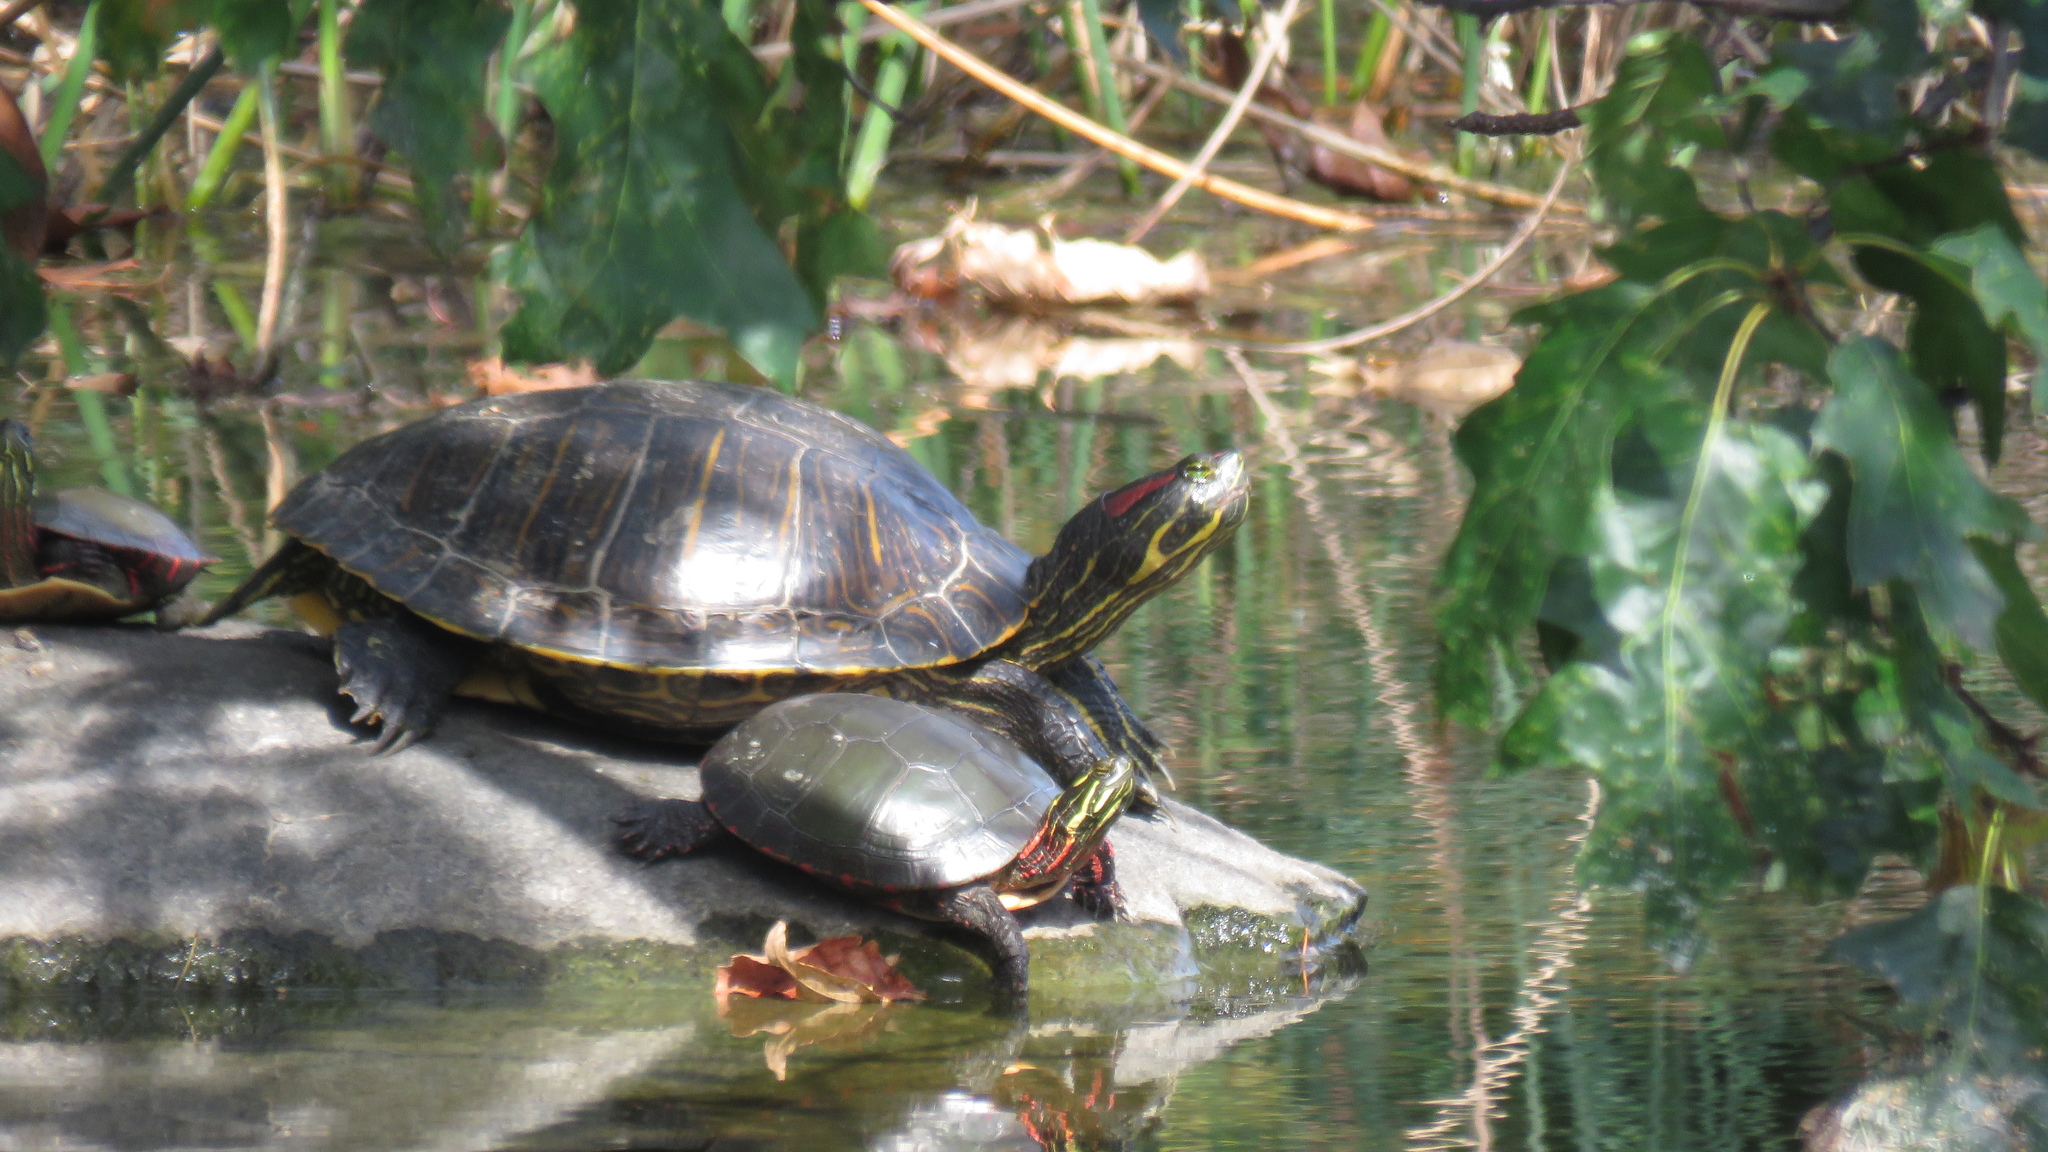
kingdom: Animalia
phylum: Chordata
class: Testudines
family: Emydidae
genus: Trachemys
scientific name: Trachemys scripta
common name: Slider
